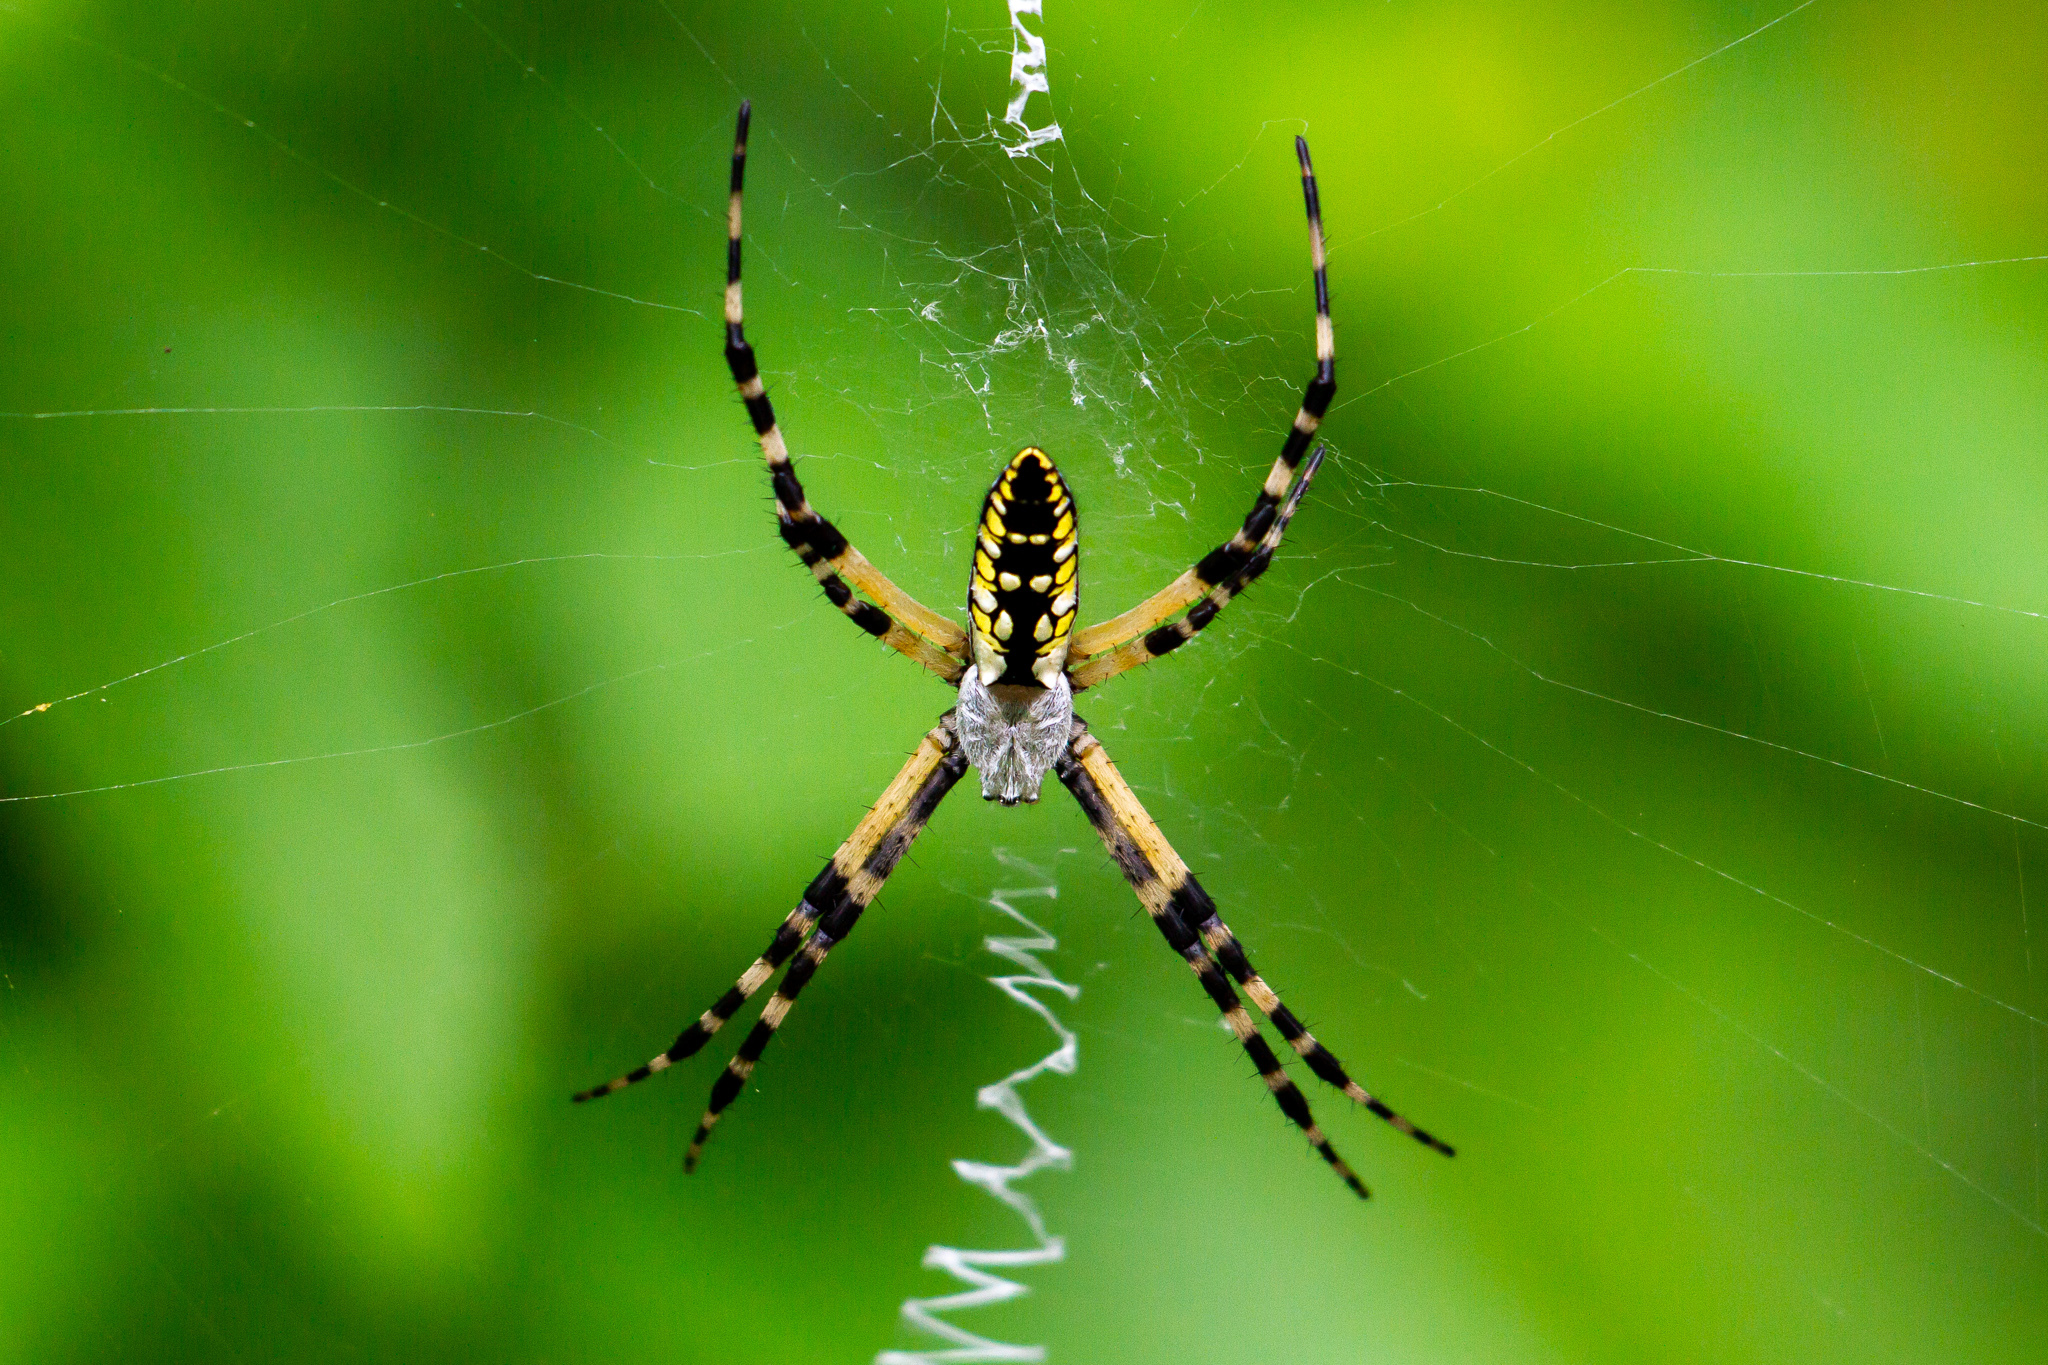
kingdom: Animalia
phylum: Arthropoda
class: Arachnida
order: Araneae
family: Araneidae
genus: Argiope
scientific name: Argiope aurantia
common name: Orb weavers
